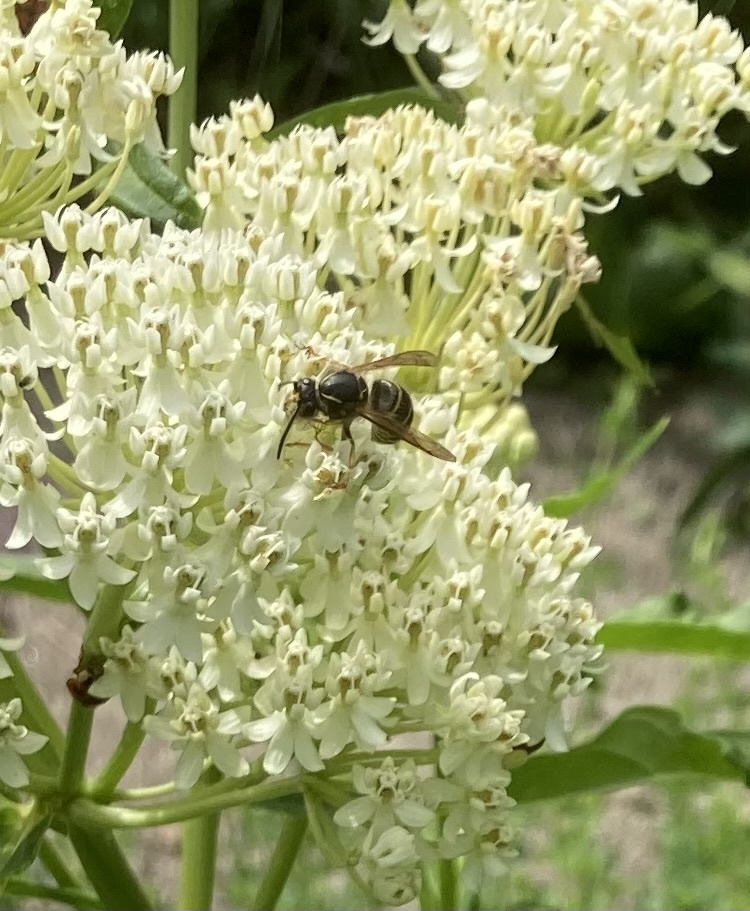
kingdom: Animalia
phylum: Arthropoda
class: Insecta
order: Hymenoptera
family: Vespidae
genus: Dolichovespula
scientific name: Dolichovespula norvegicoides
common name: Northern aerial yellowjacket
